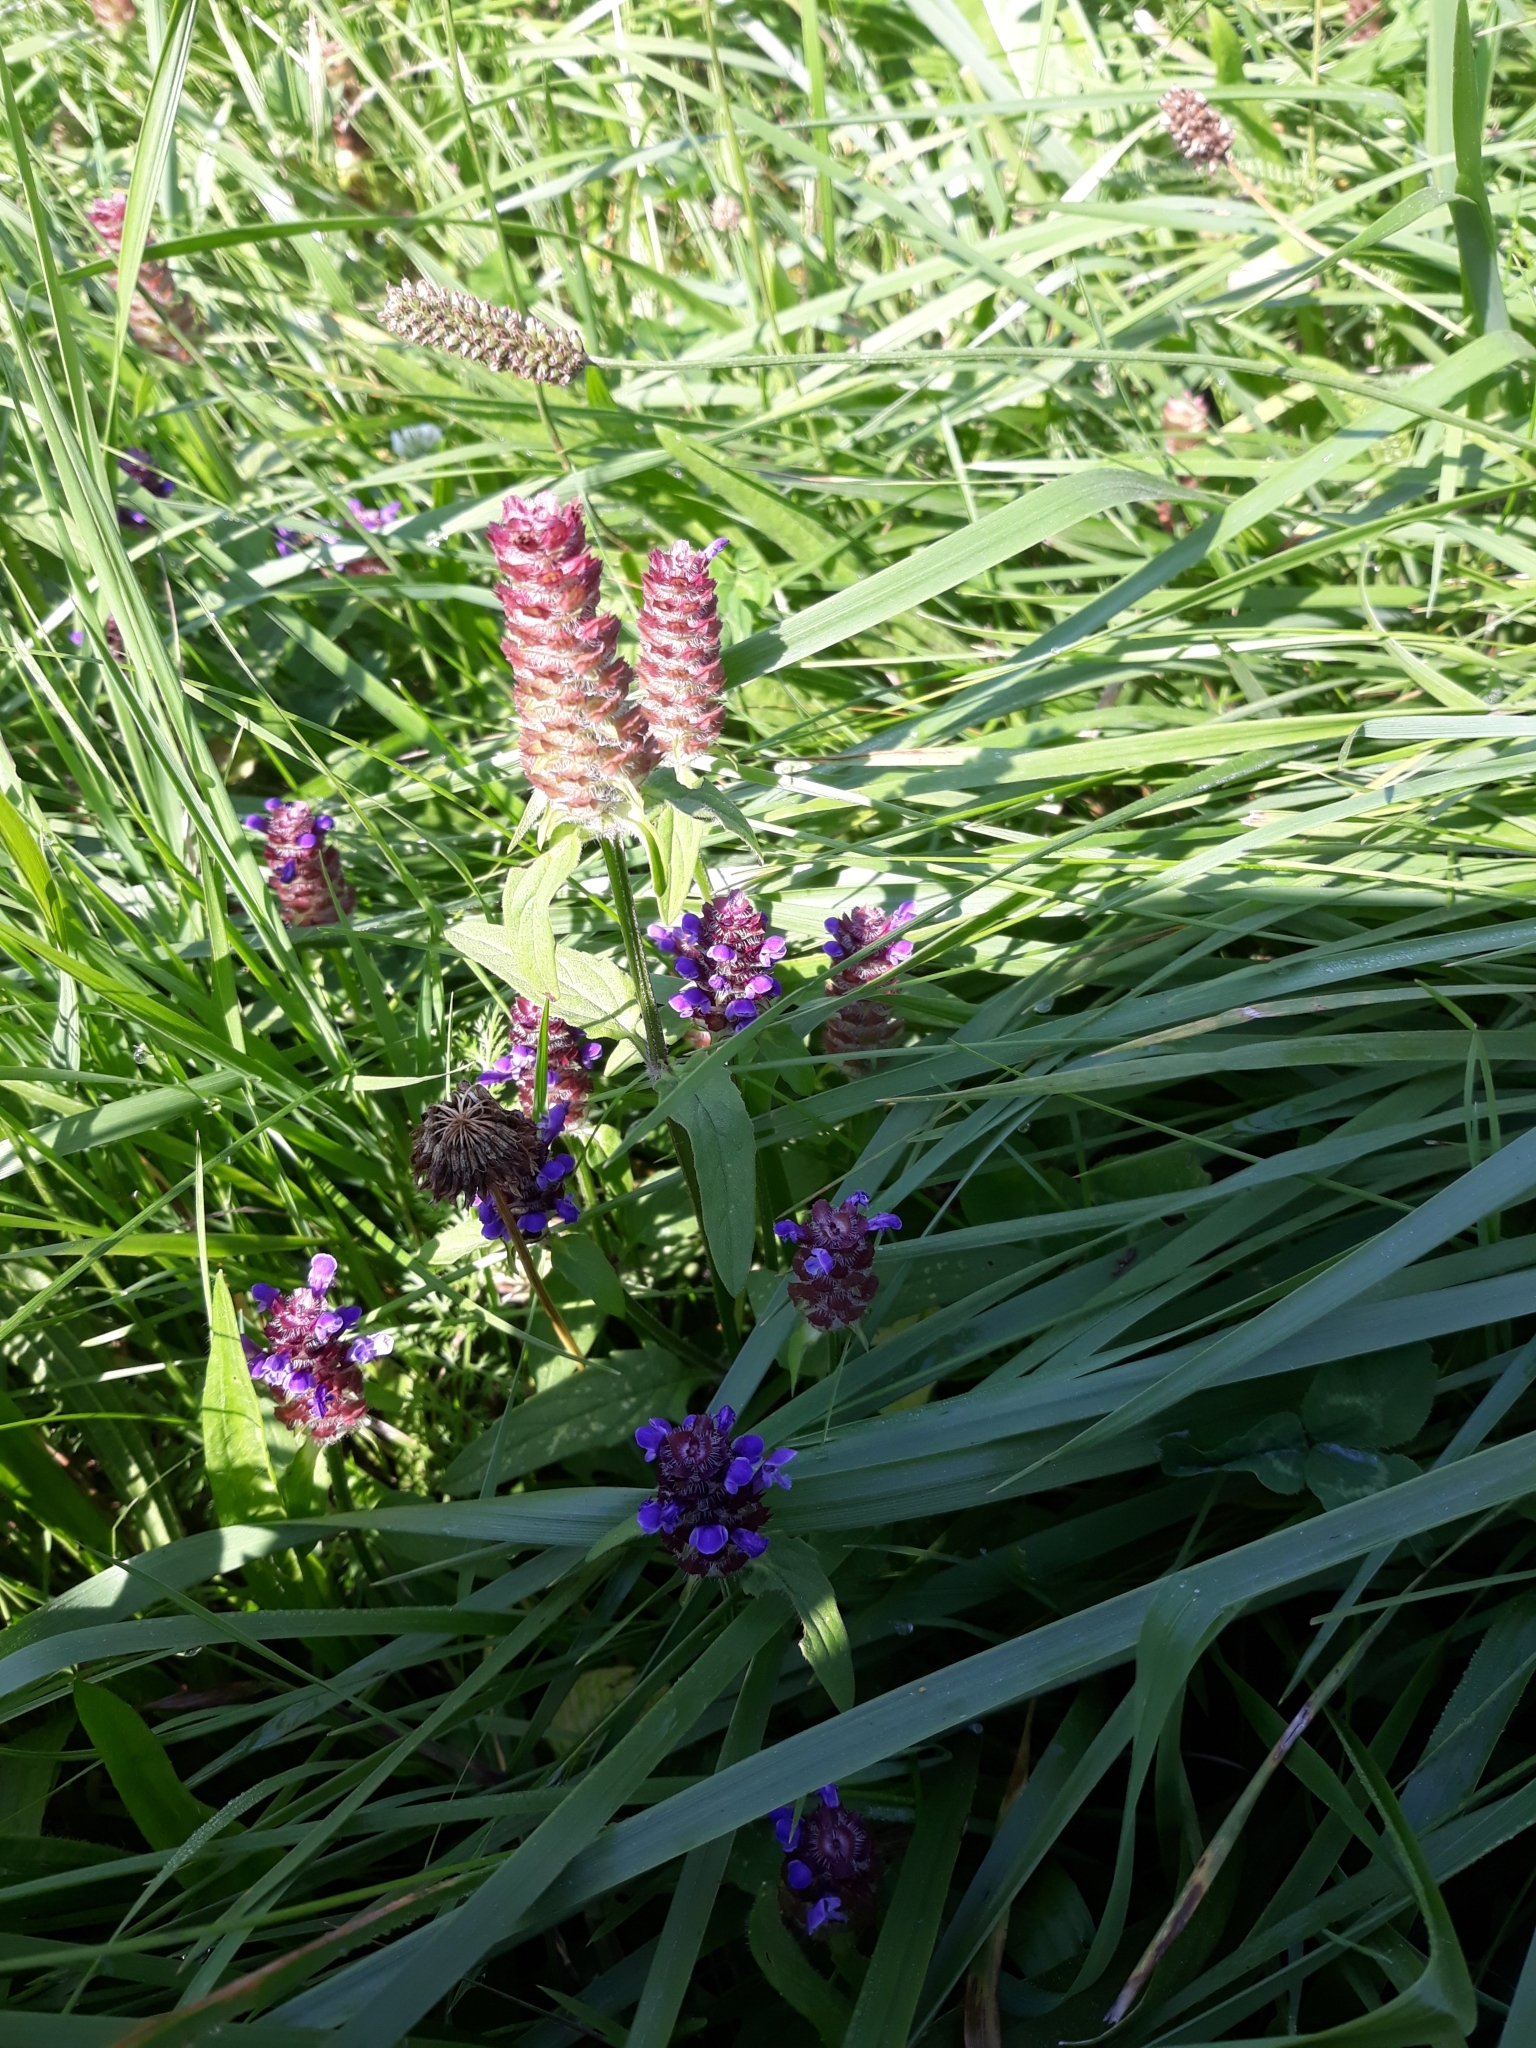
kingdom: Plantae
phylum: Tracheophyta
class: Magnoliopsida
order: Lamiales
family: Lamiaceae
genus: Prunella
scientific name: Prunella vulgaris
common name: Heal-all
